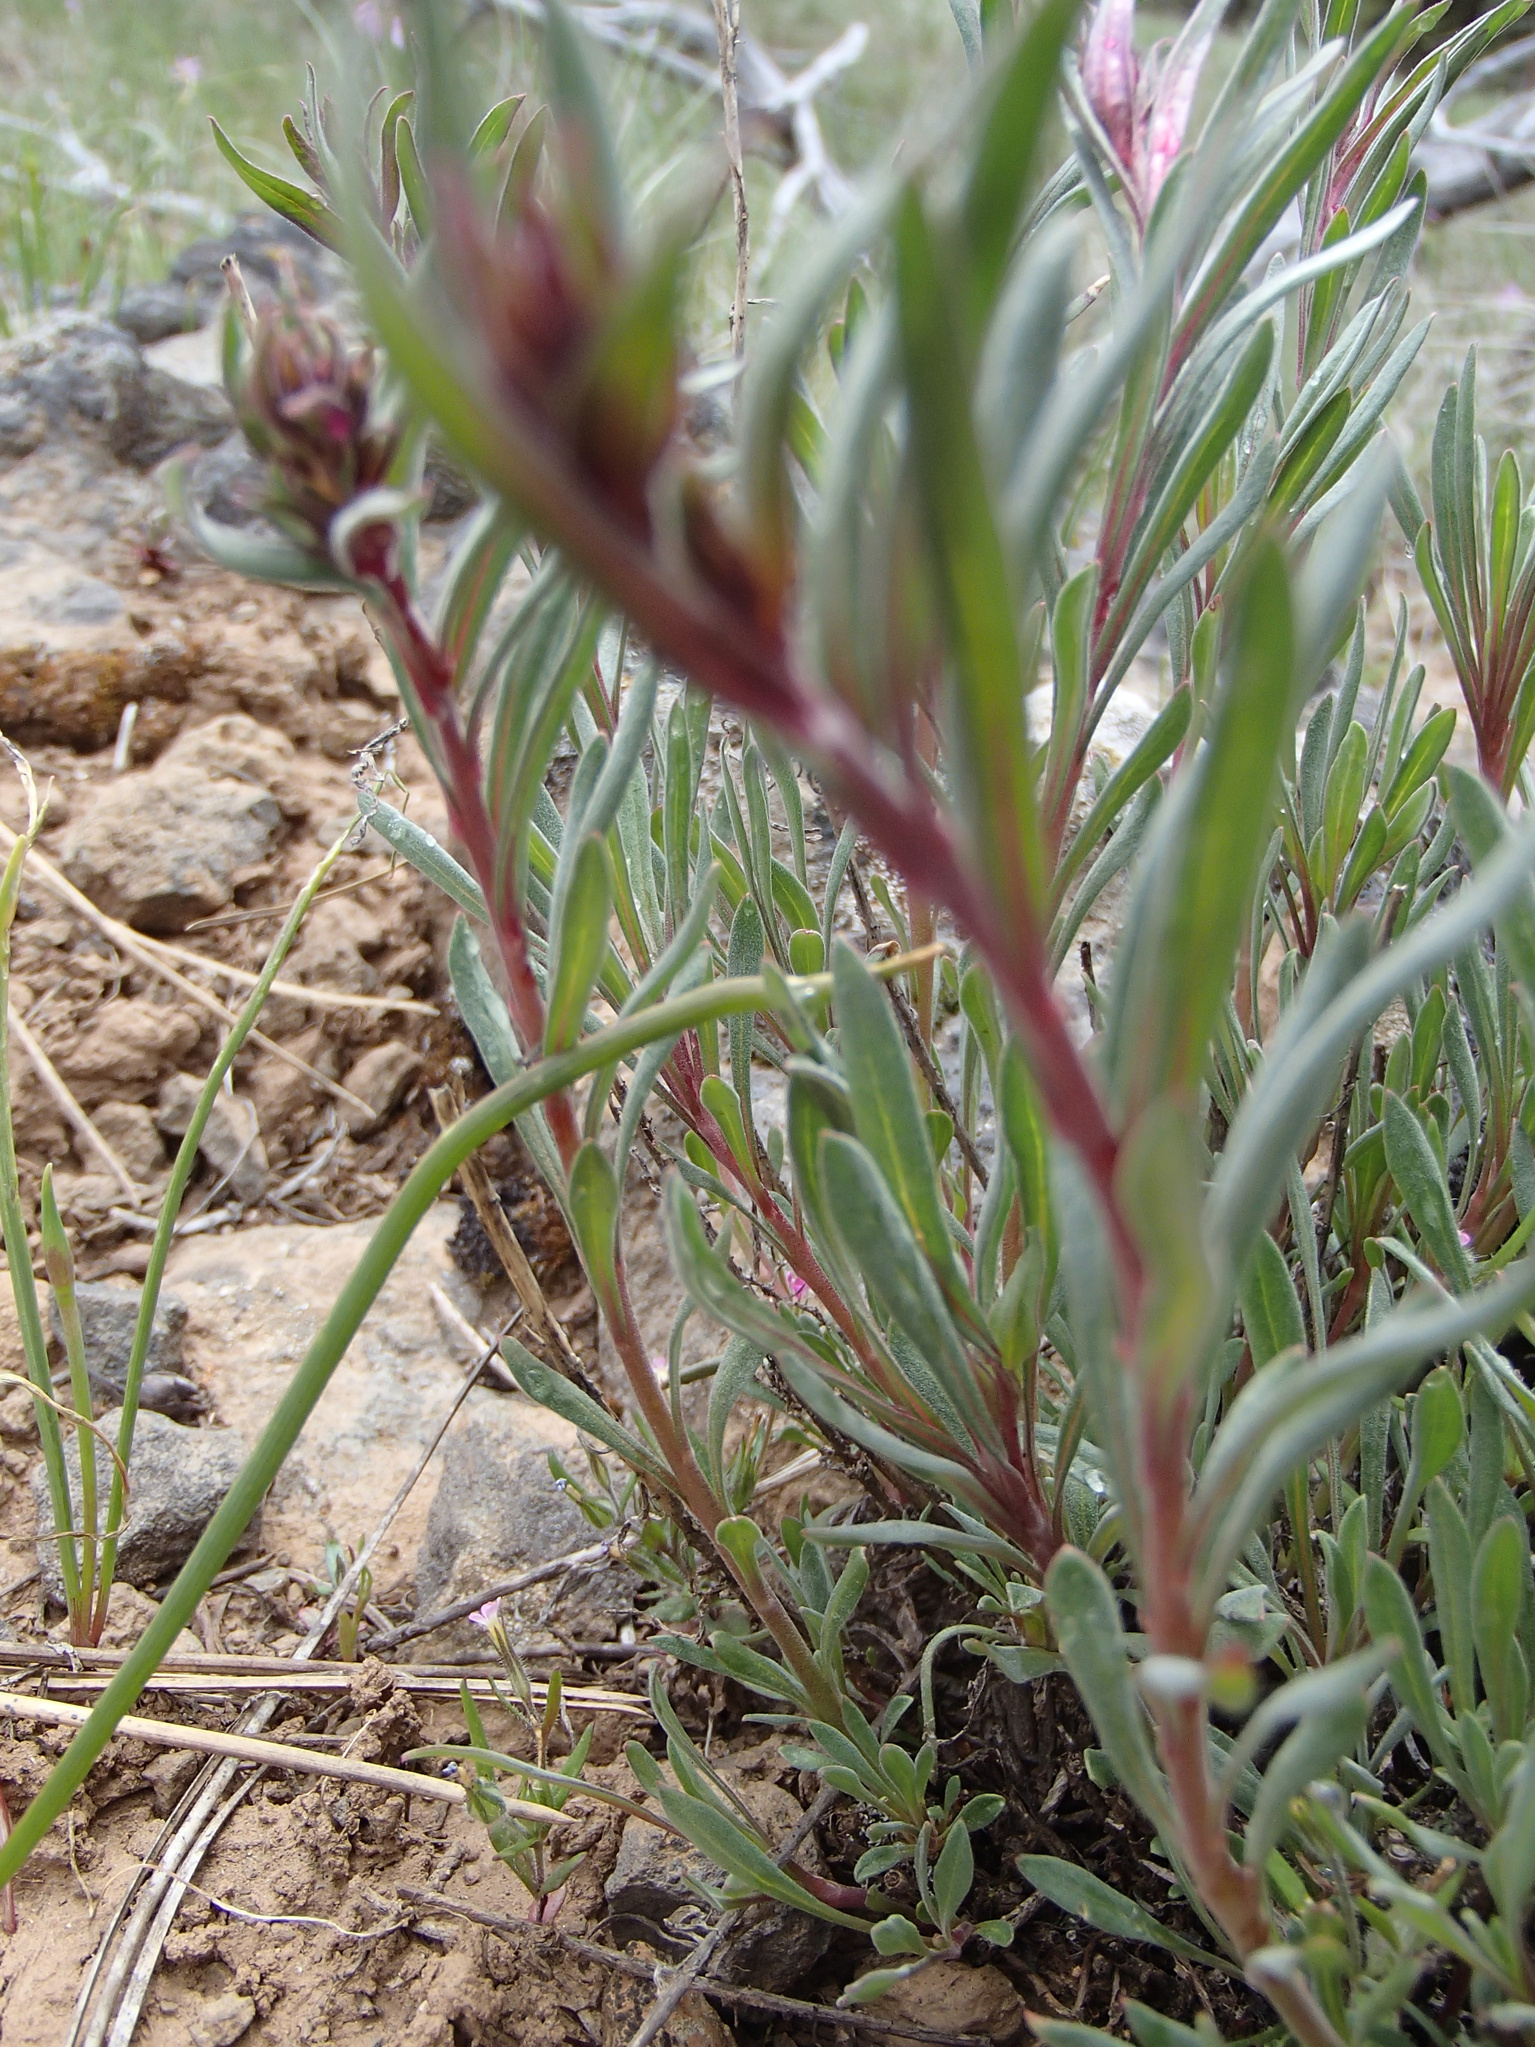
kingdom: Plantae
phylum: Tracheophyta
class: Magnoliopsida
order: Lamiales
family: Plantaginaceae
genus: Penstemon
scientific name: Penstemon gairdneri
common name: Gairdner's penstemon
